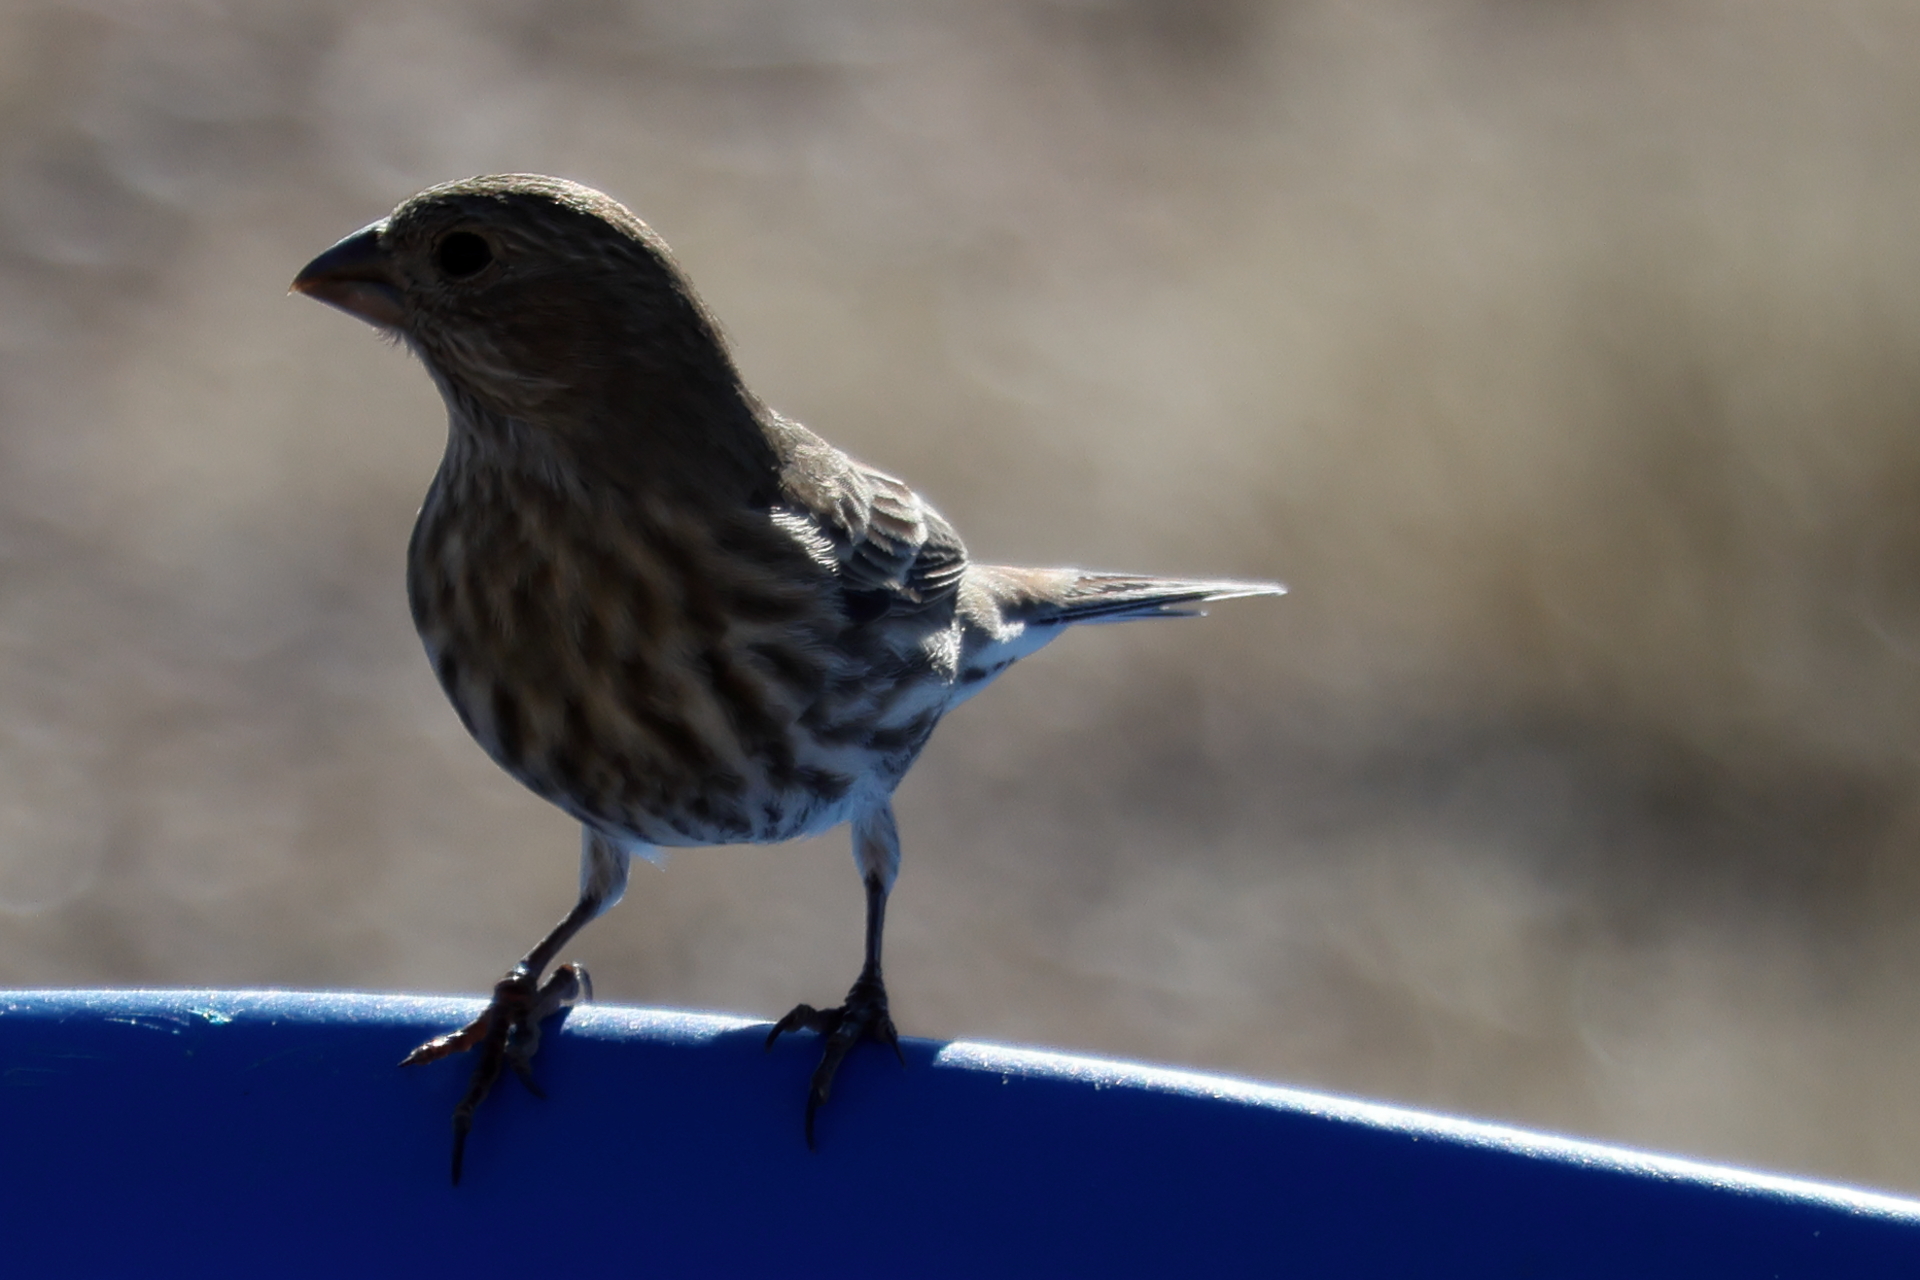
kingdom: Animalia
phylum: Chordata
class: Aves
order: Passeriformes
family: Fringillidae
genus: Haemorhous
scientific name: Haemorhous mexicanus
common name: House finch
